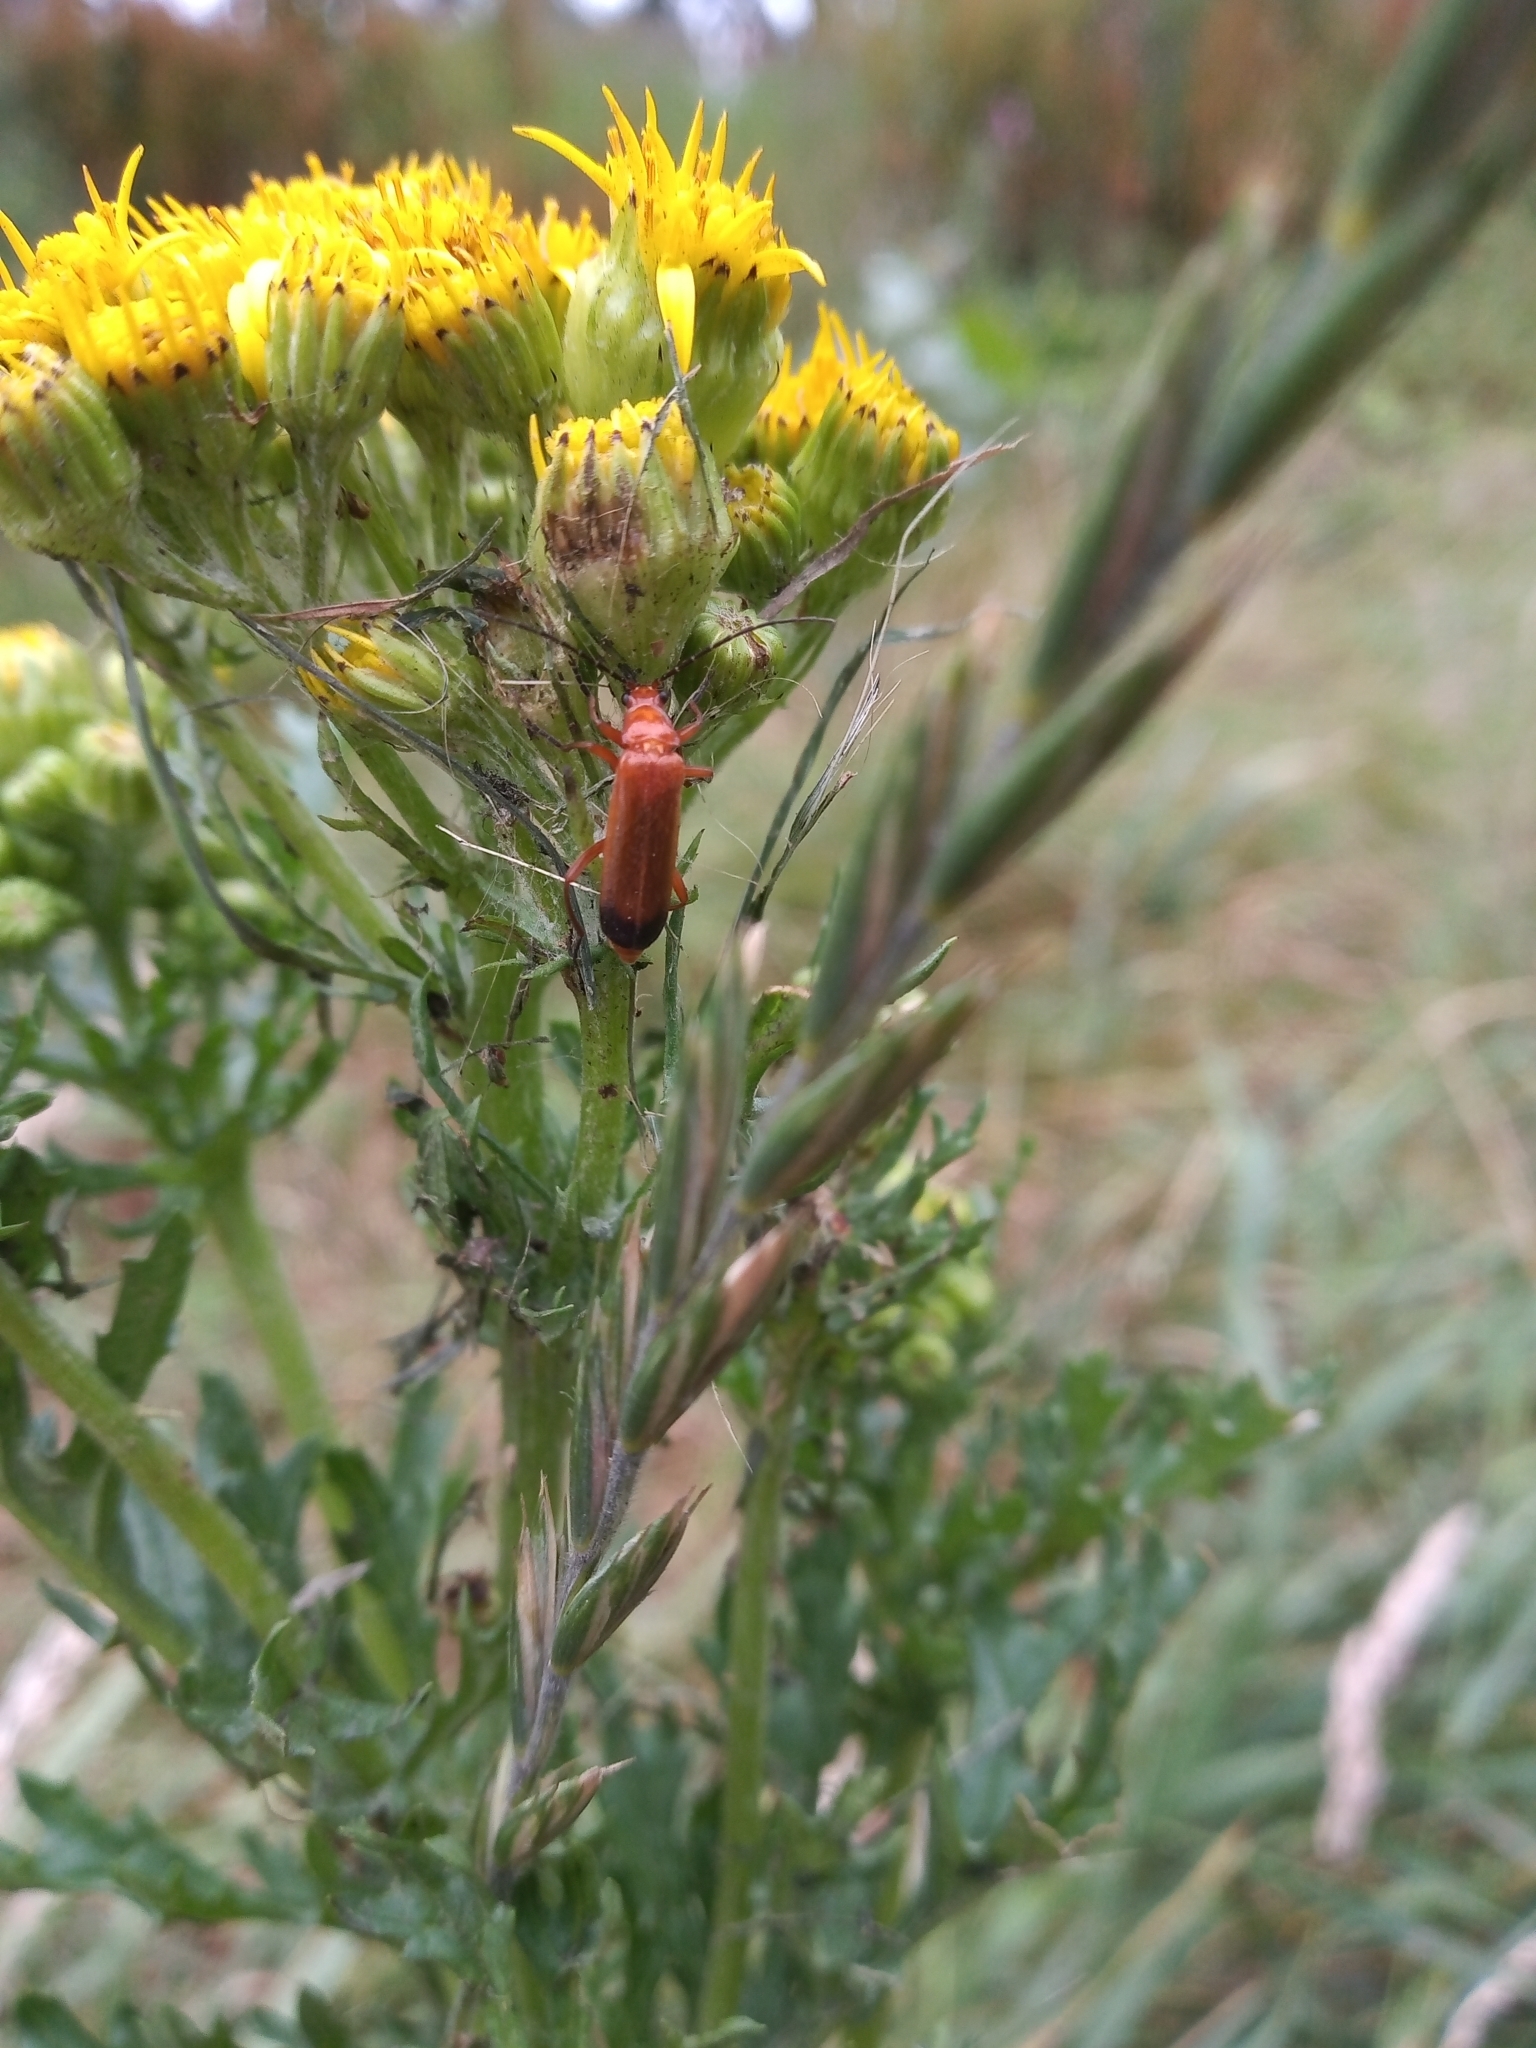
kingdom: Animalia
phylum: Arthropoda
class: Insecta
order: Coleoptera
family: Cantharidae
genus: Rhagonycha
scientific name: Rhagonycha fulva
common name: Common red soldier beetle
